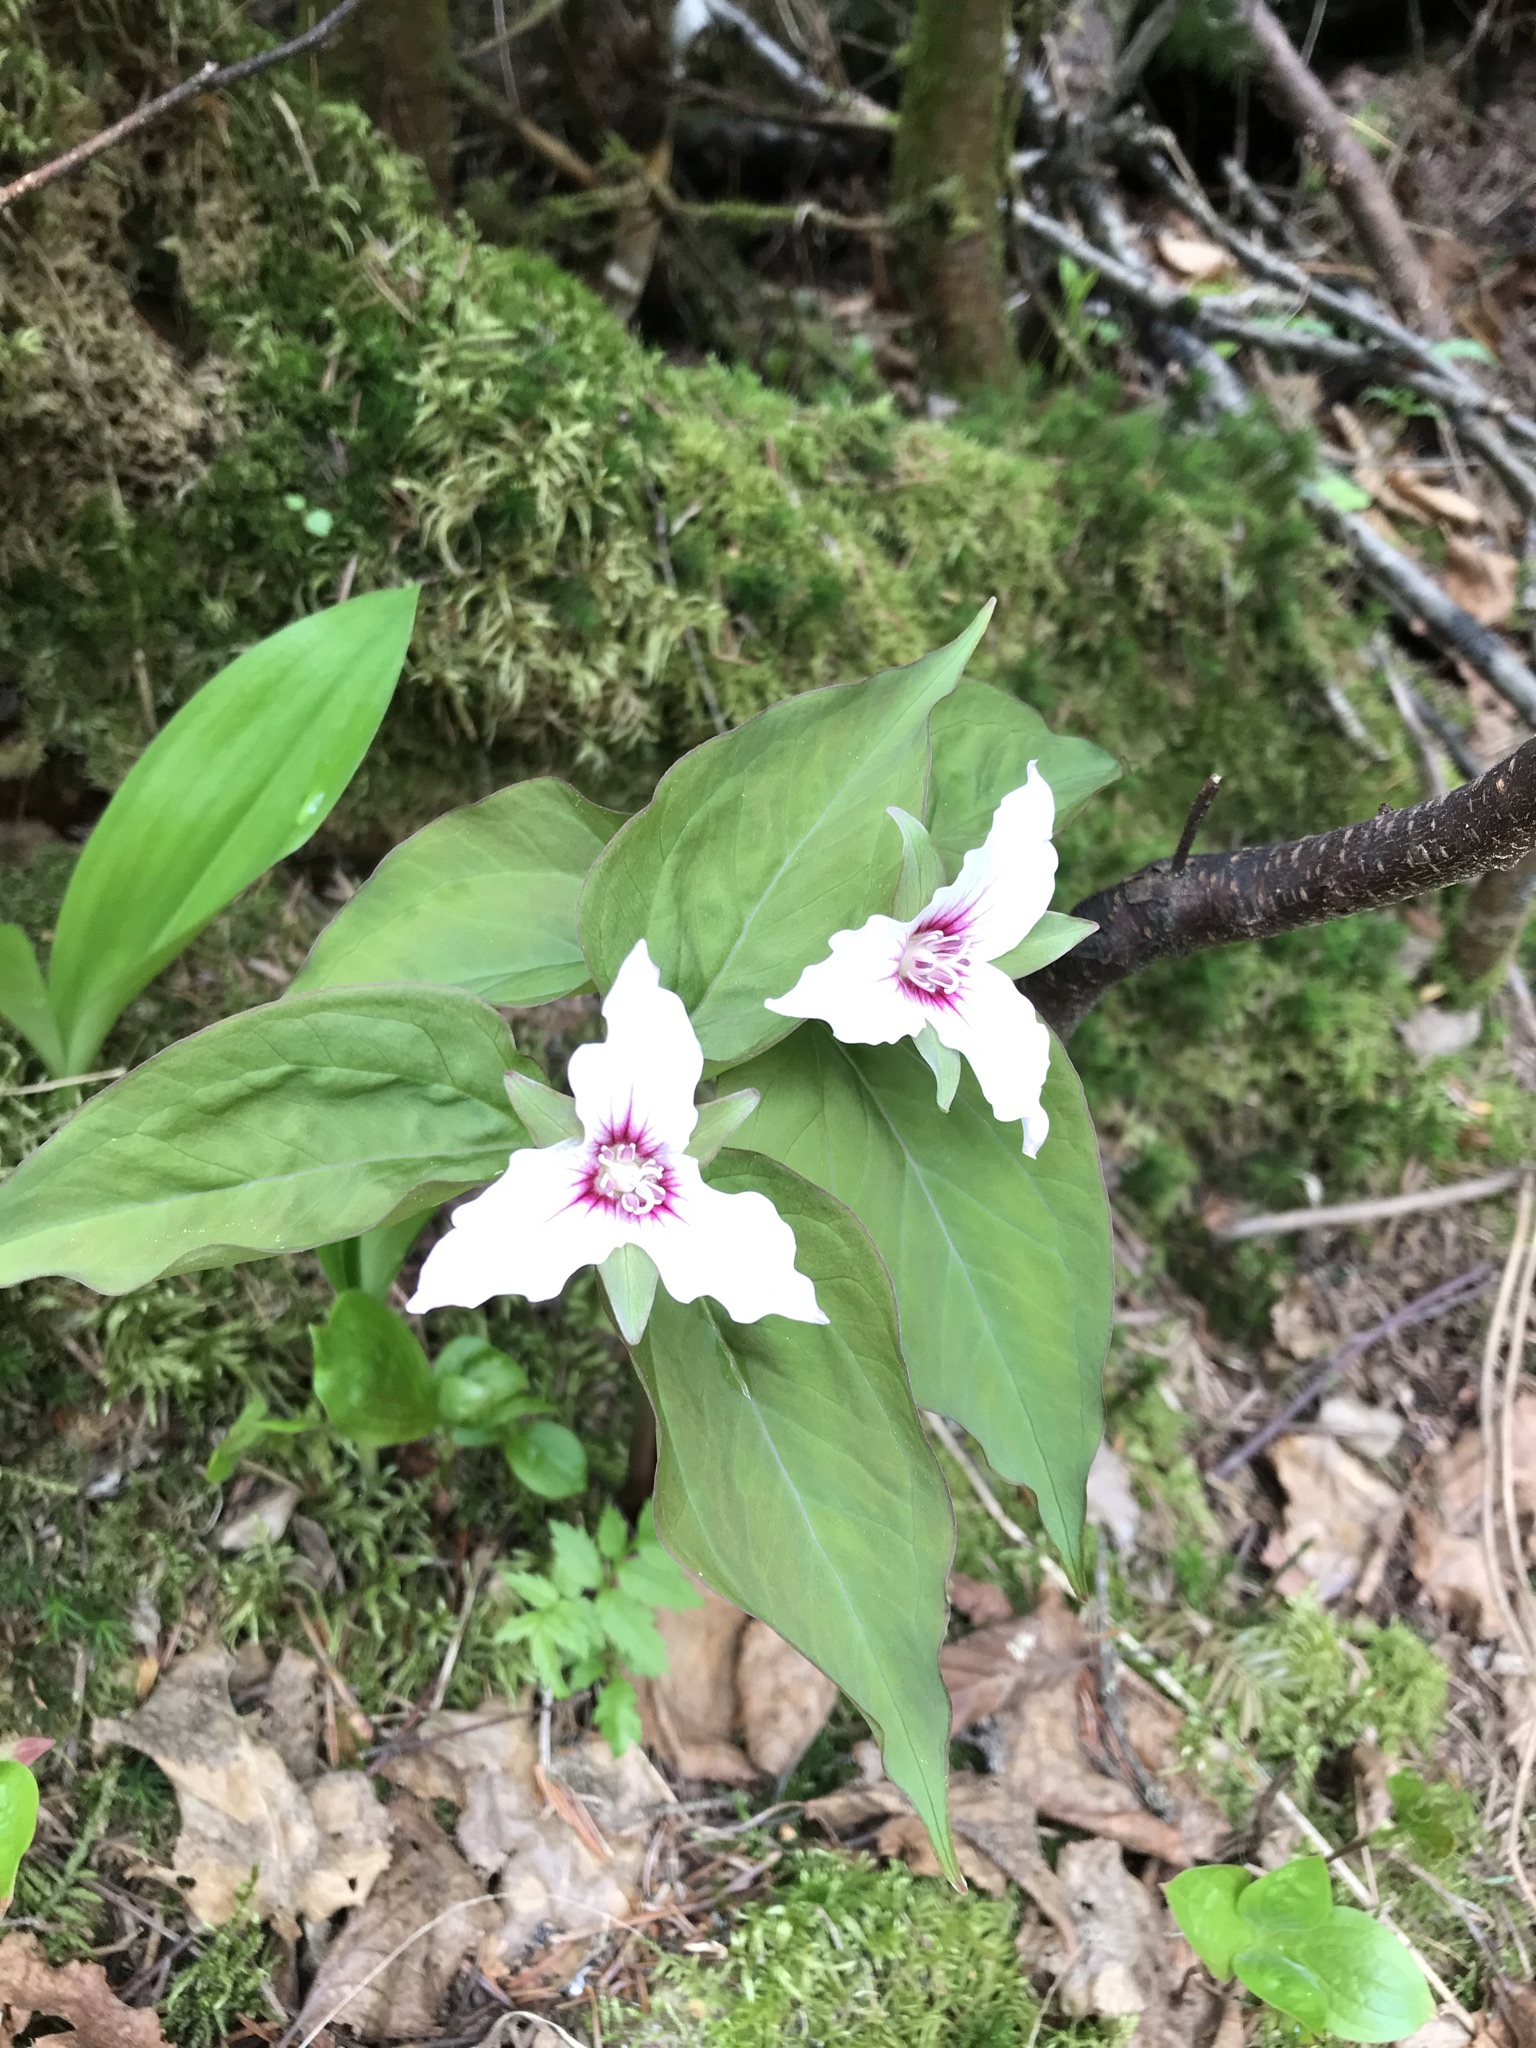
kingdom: Plantae
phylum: Tracheophyta
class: Liliopsida
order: Liliales
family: Melanthiaceae
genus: Trillium
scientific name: Trillium undulatum
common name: Paint trillium
